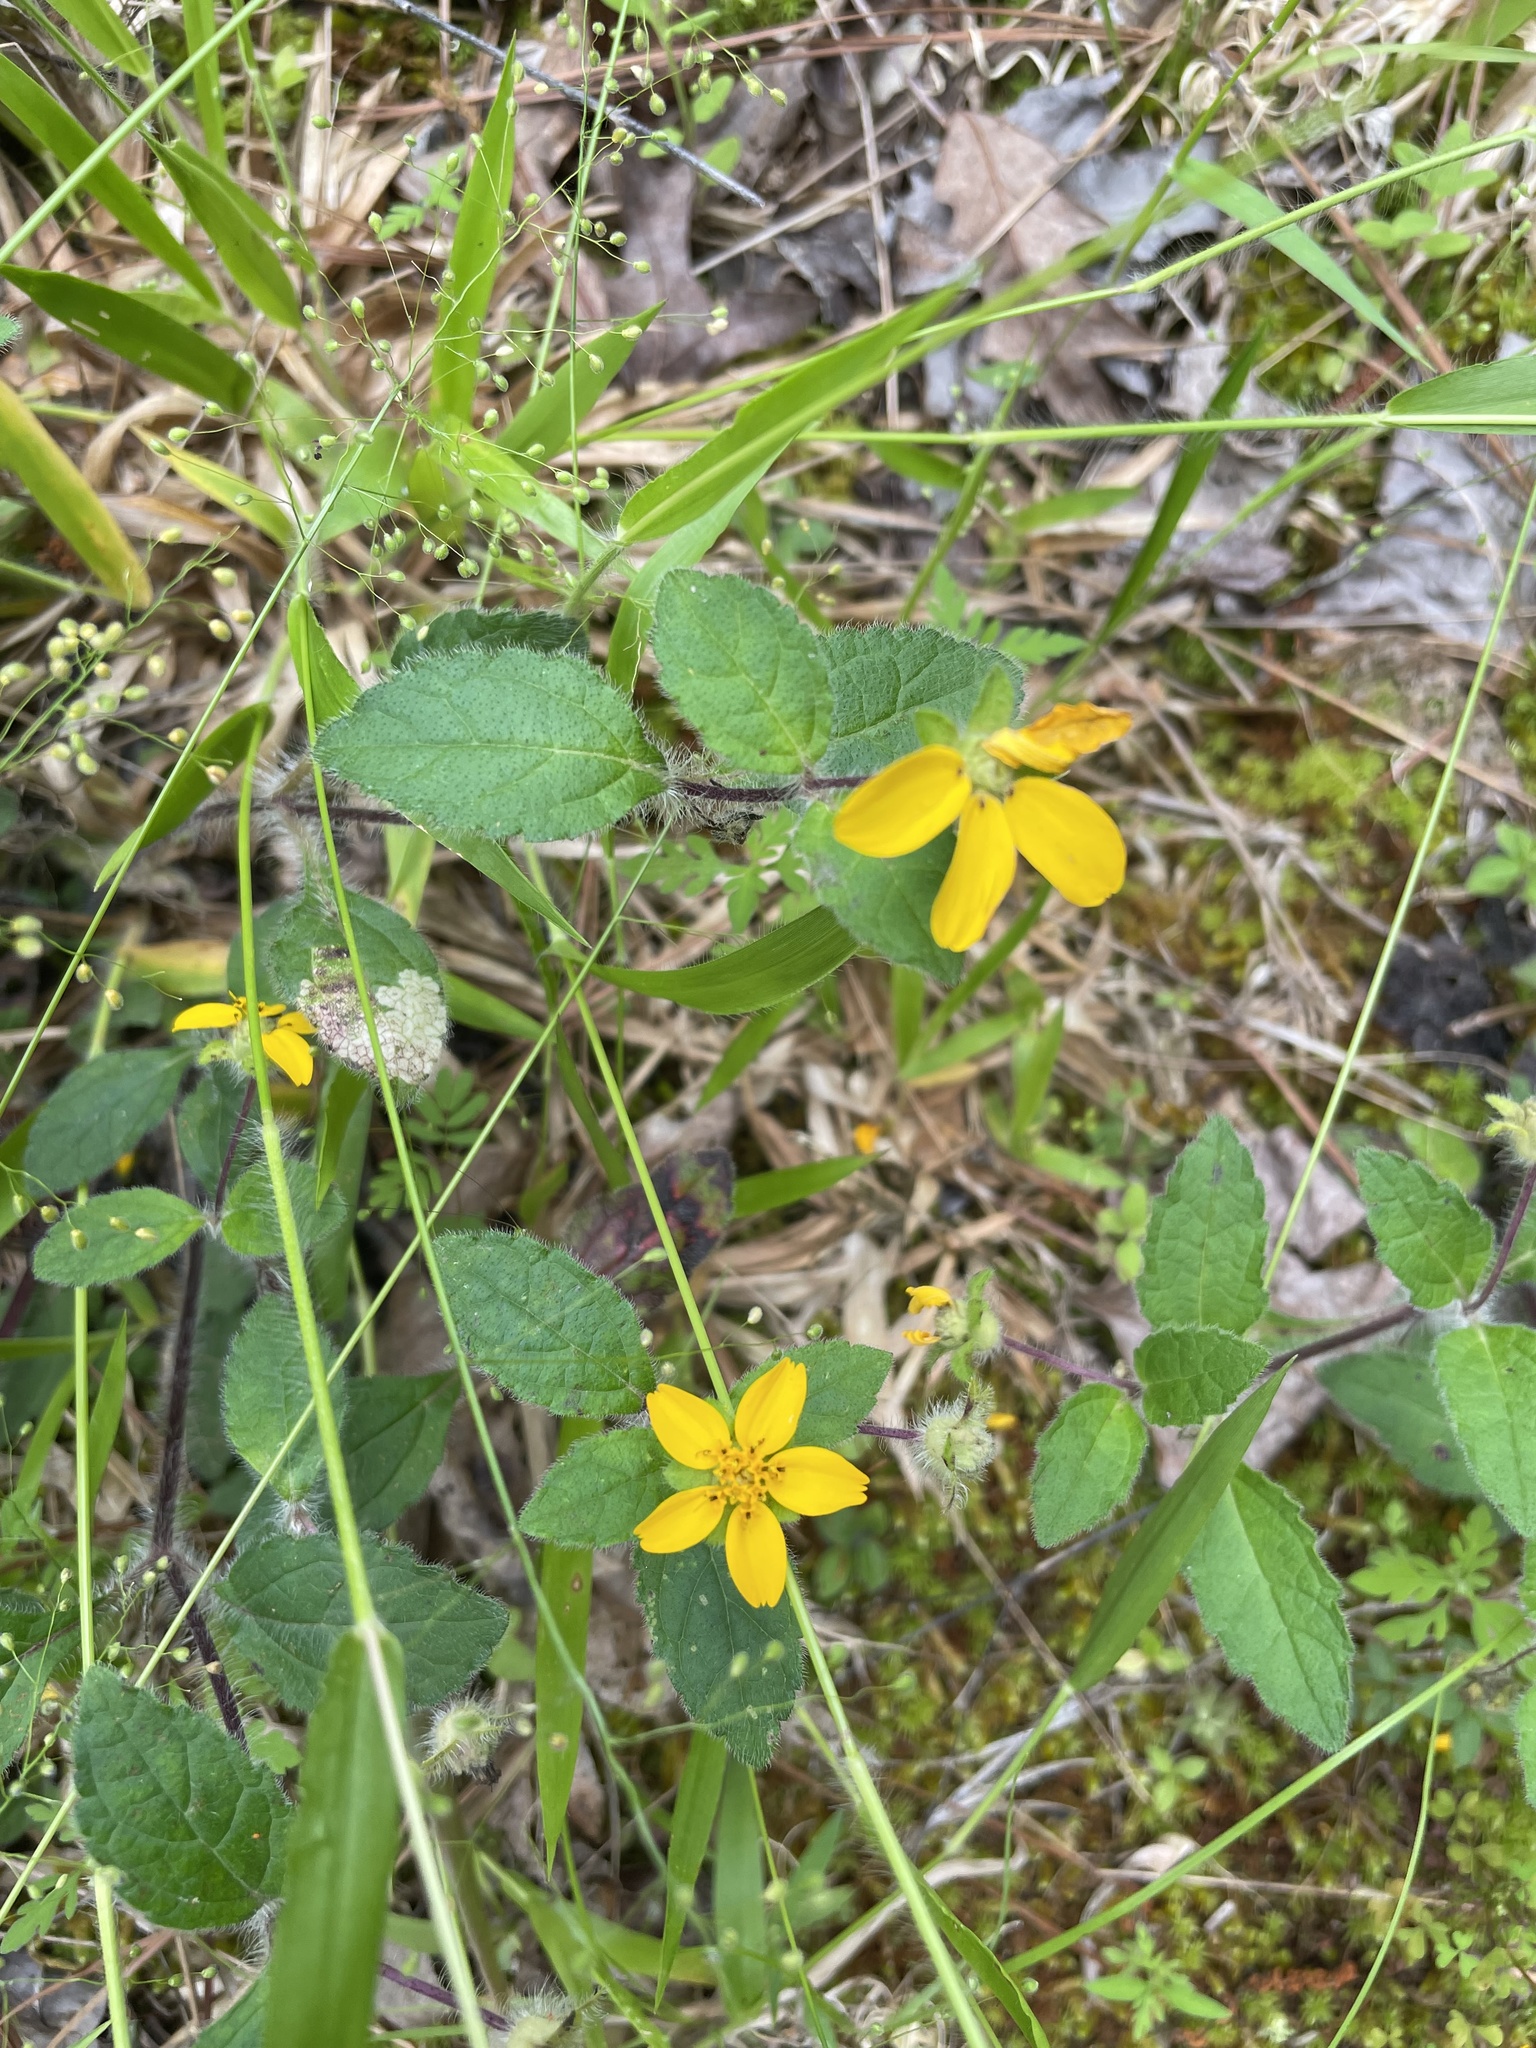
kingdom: Plantae
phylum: Tracheophyta
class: Magnoliopsida
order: Asterales
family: Asteraceae
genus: Chrysogonum
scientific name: Chrysogonum virginianum
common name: Golden-knee
